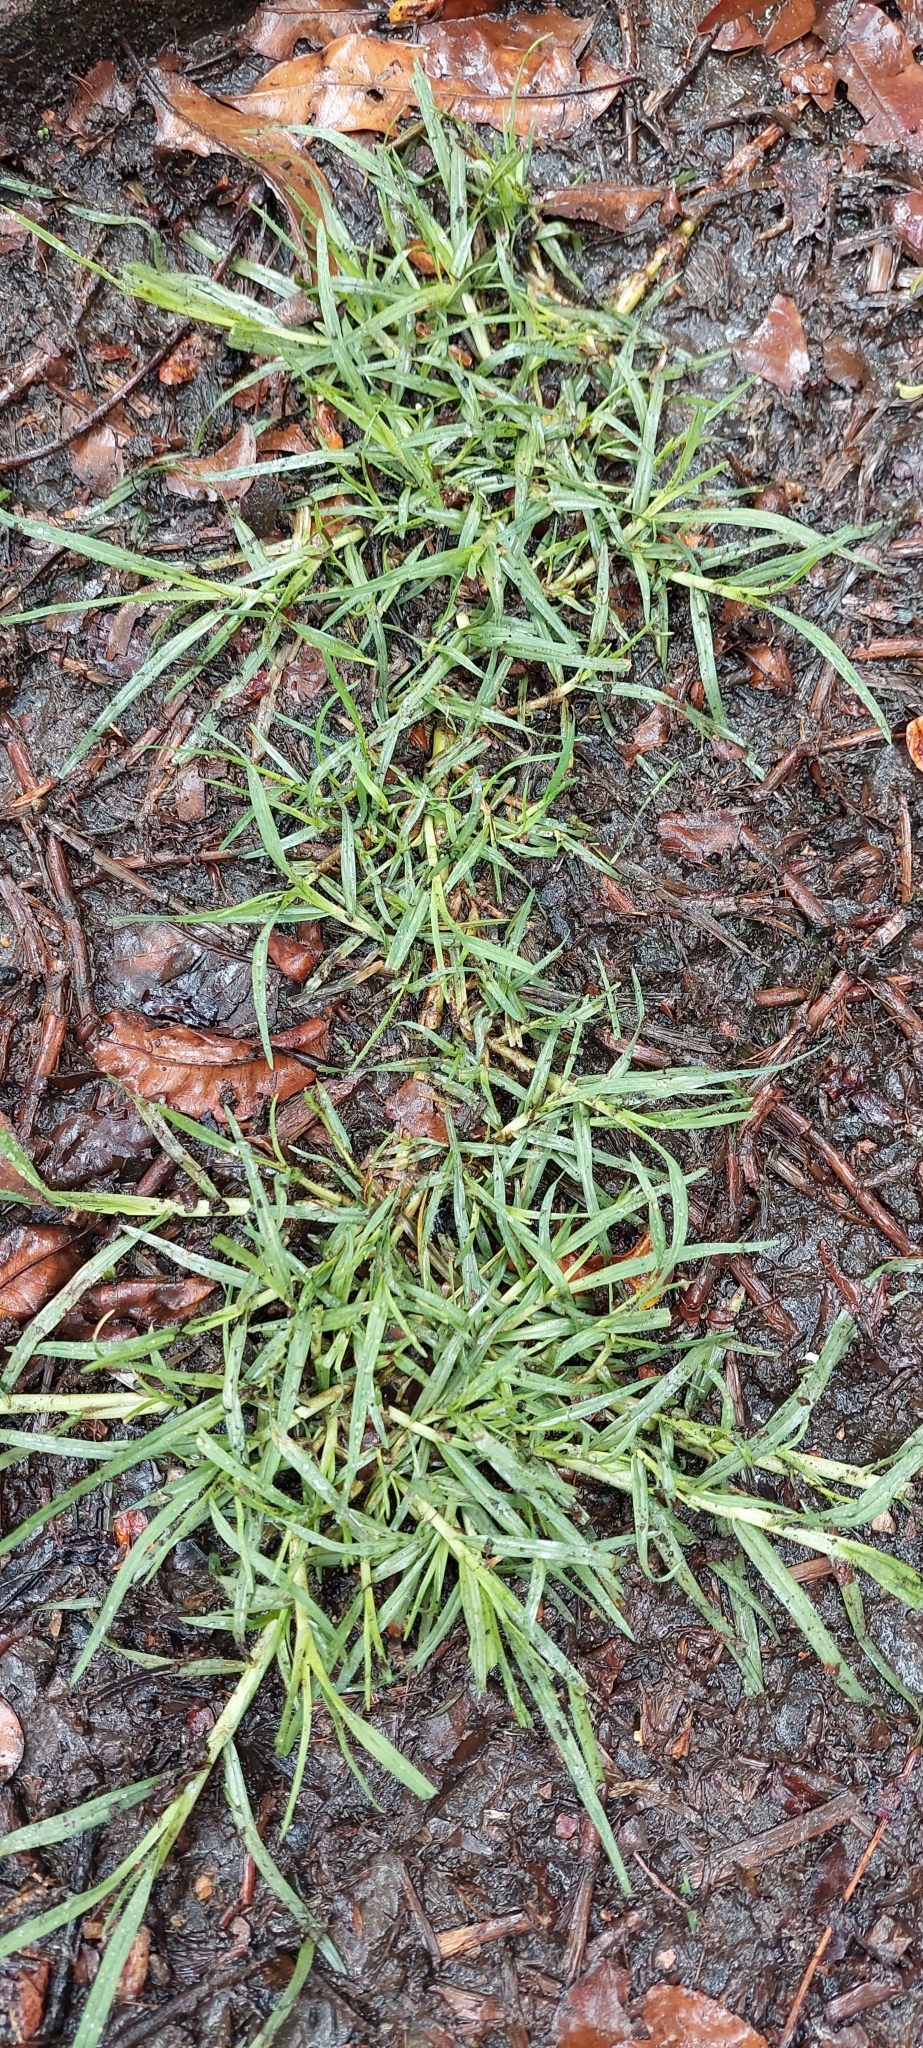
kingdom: Plantae
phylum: Tracheophyta
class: Liliopsida
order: Poales
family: Poaceae
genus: Cenchrus
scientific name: Cenchrus clandestinus
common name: Kikuyugrass
